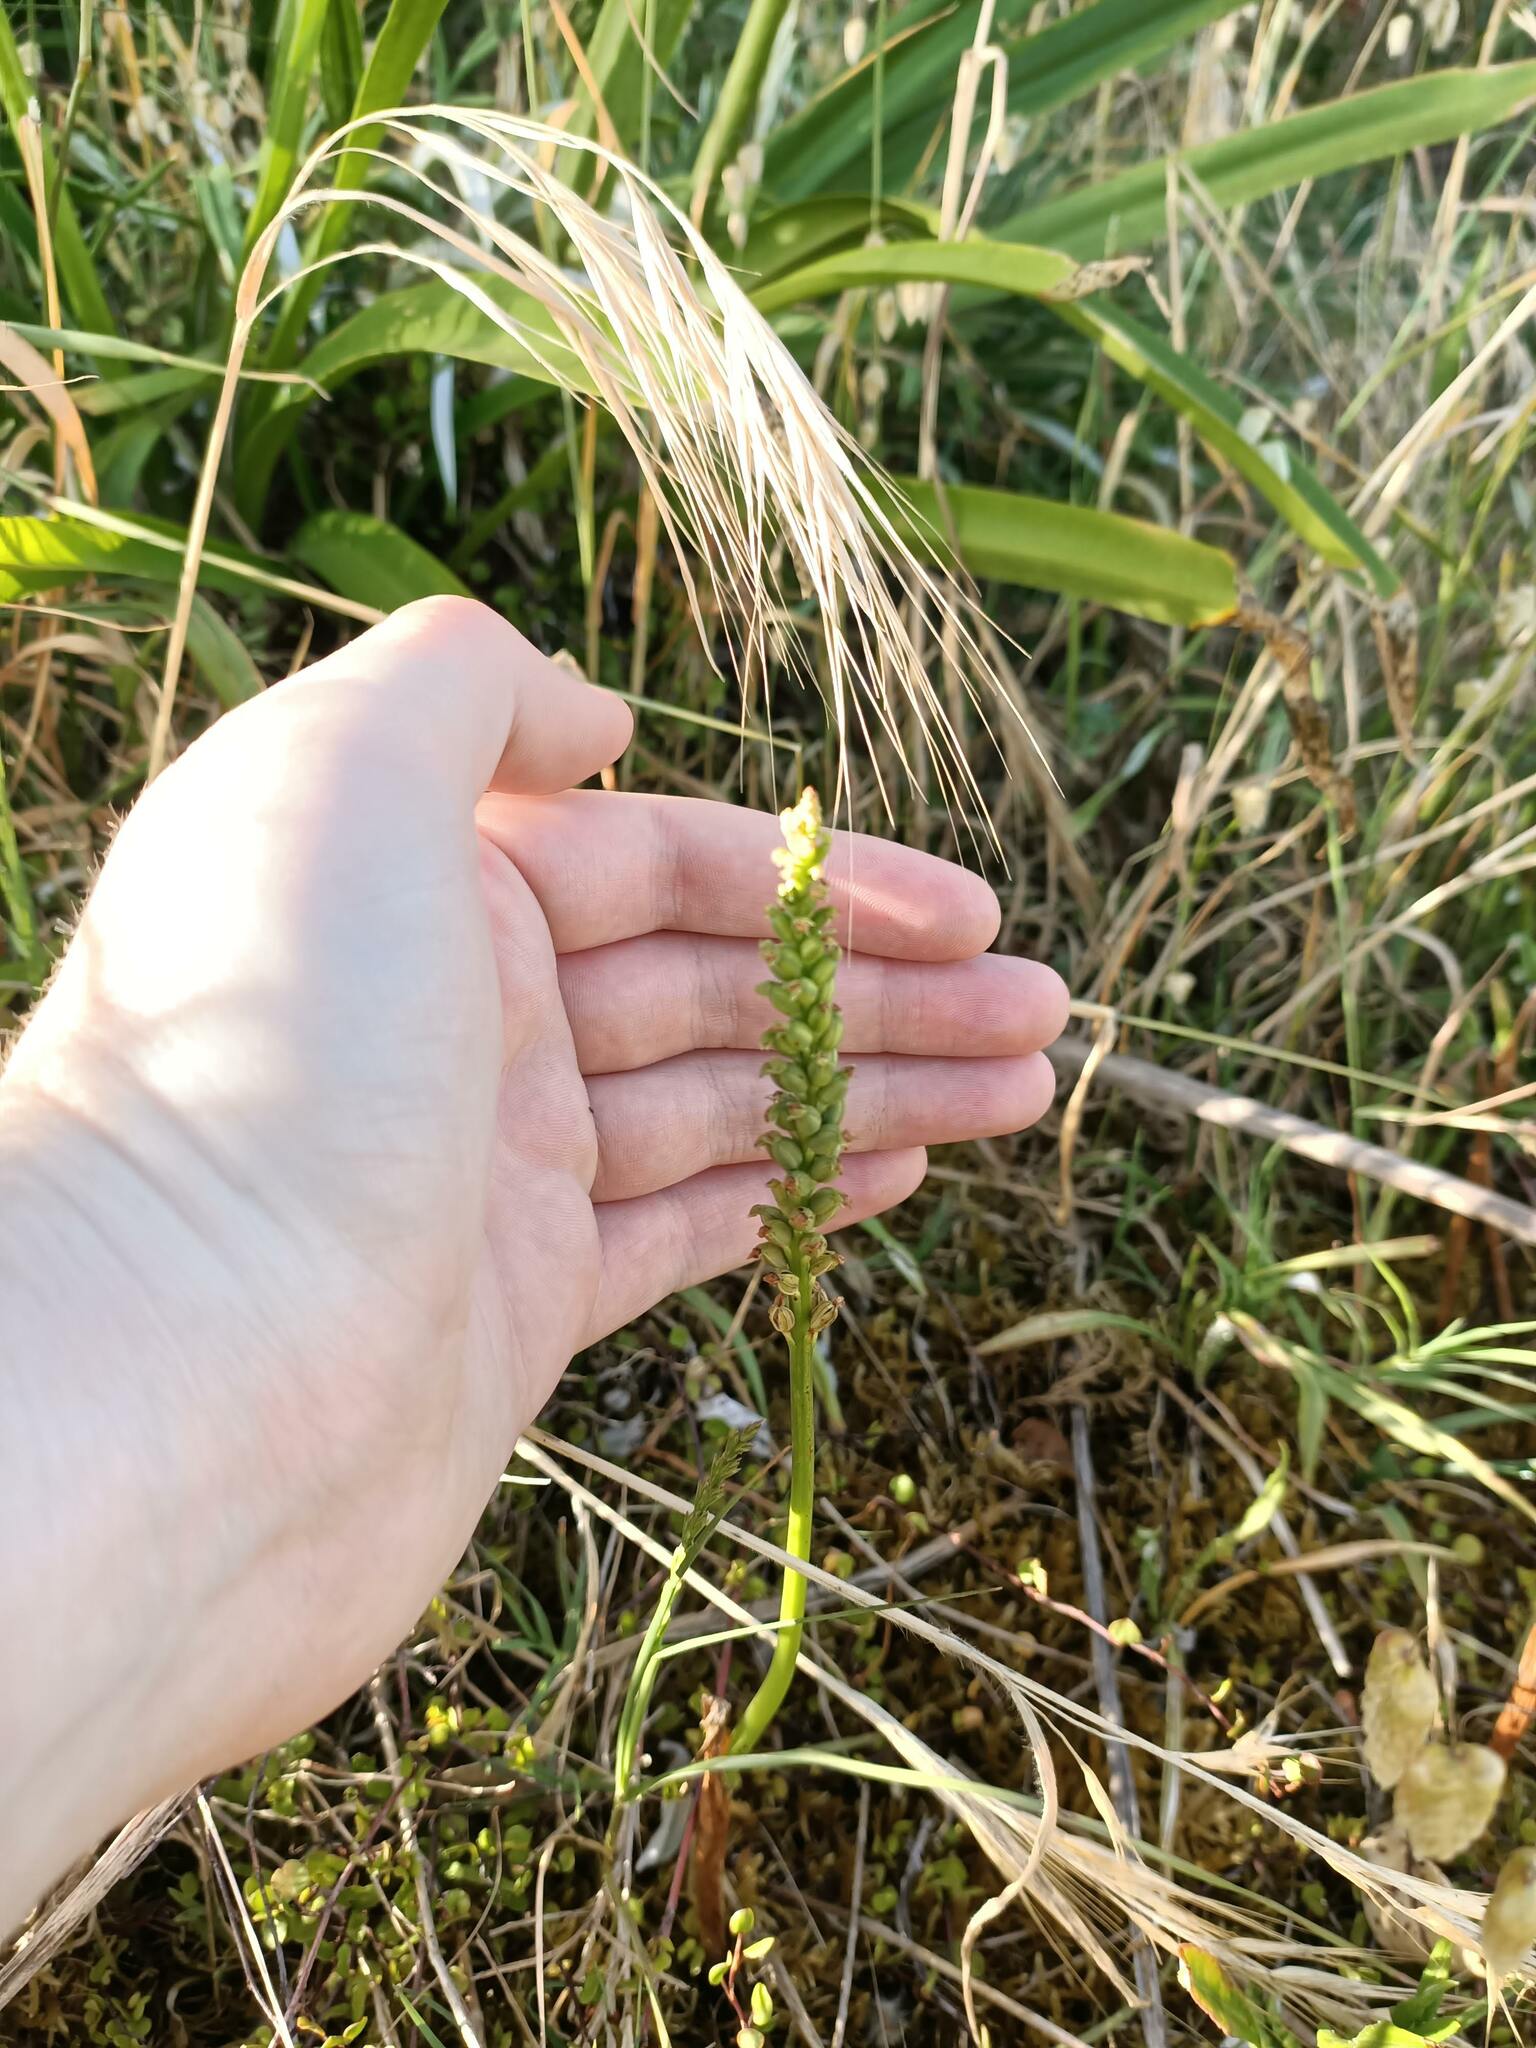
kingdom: Plantae
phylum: Tracheophyta
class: Liliopsida
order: Asparagales
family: Orchidaceae
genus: Microtis
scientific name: Microtis unifolia
